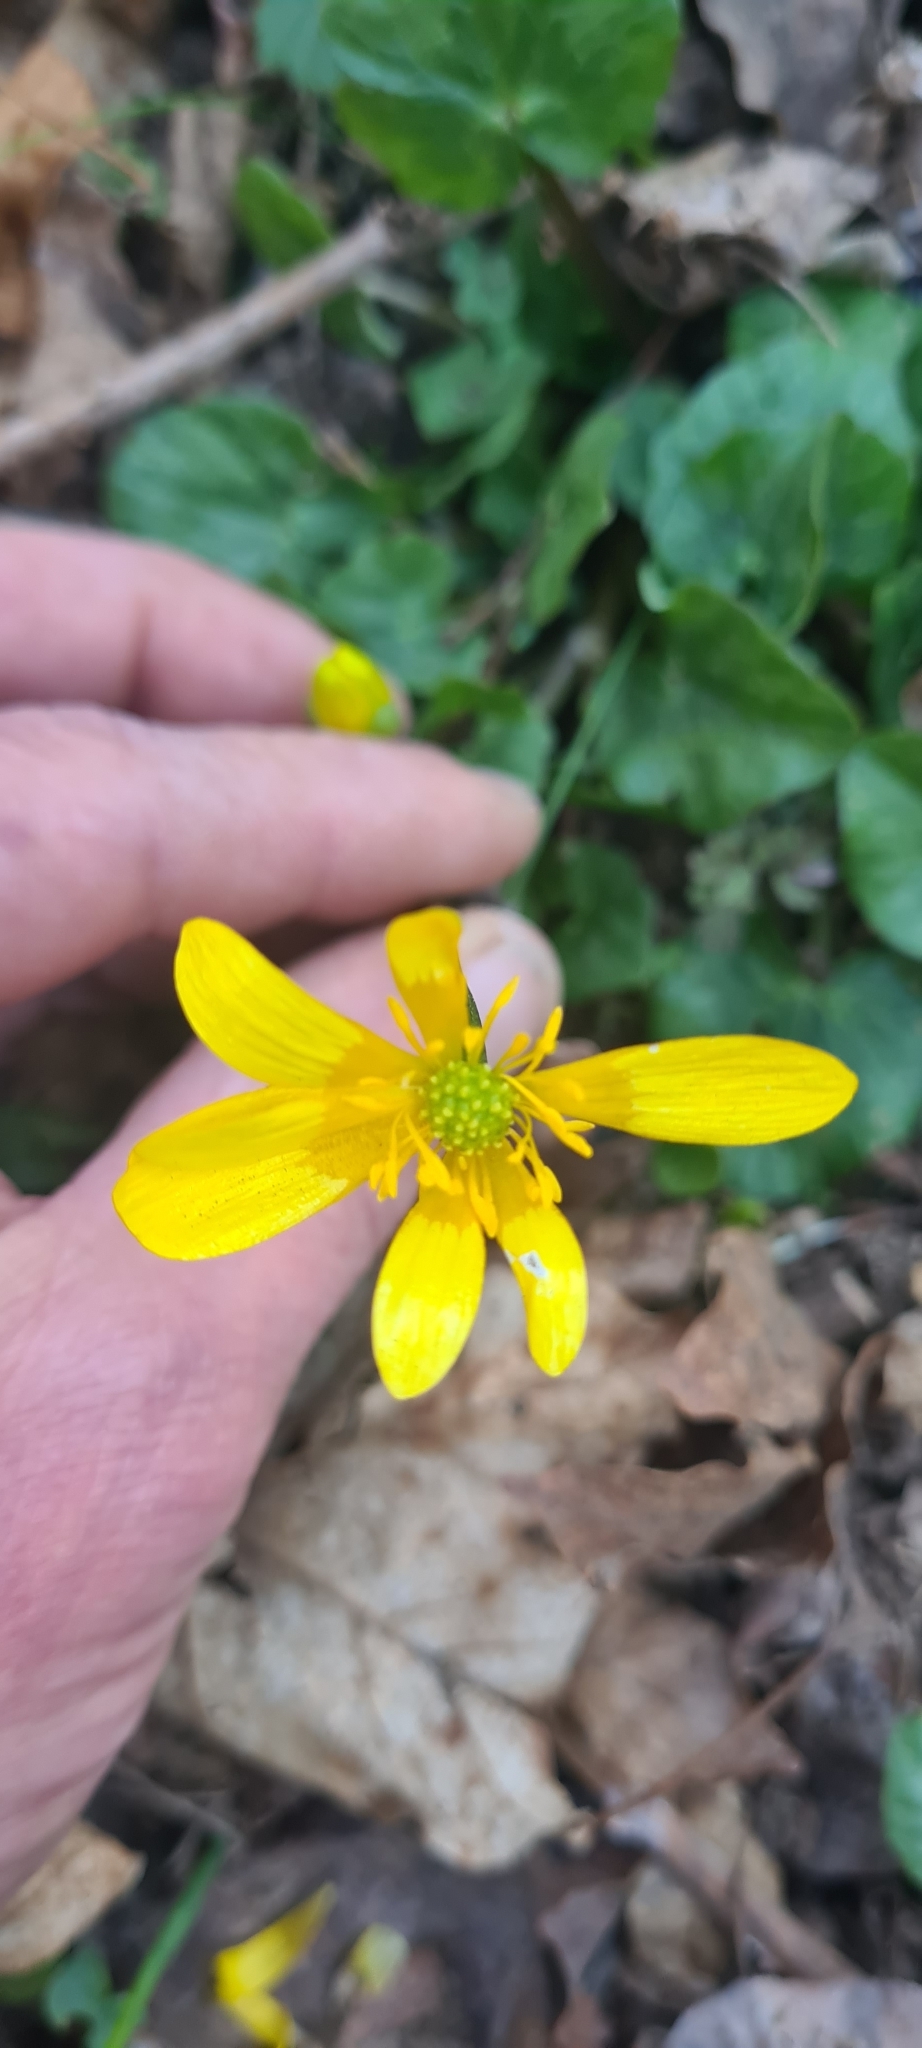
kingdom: Plantae
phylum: Tracheophyta
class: Magnoliopsida
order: Ranunculales
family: Ranunculaceae
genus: Ficaria
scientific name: Ficaria verna
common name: Lesser celandine
